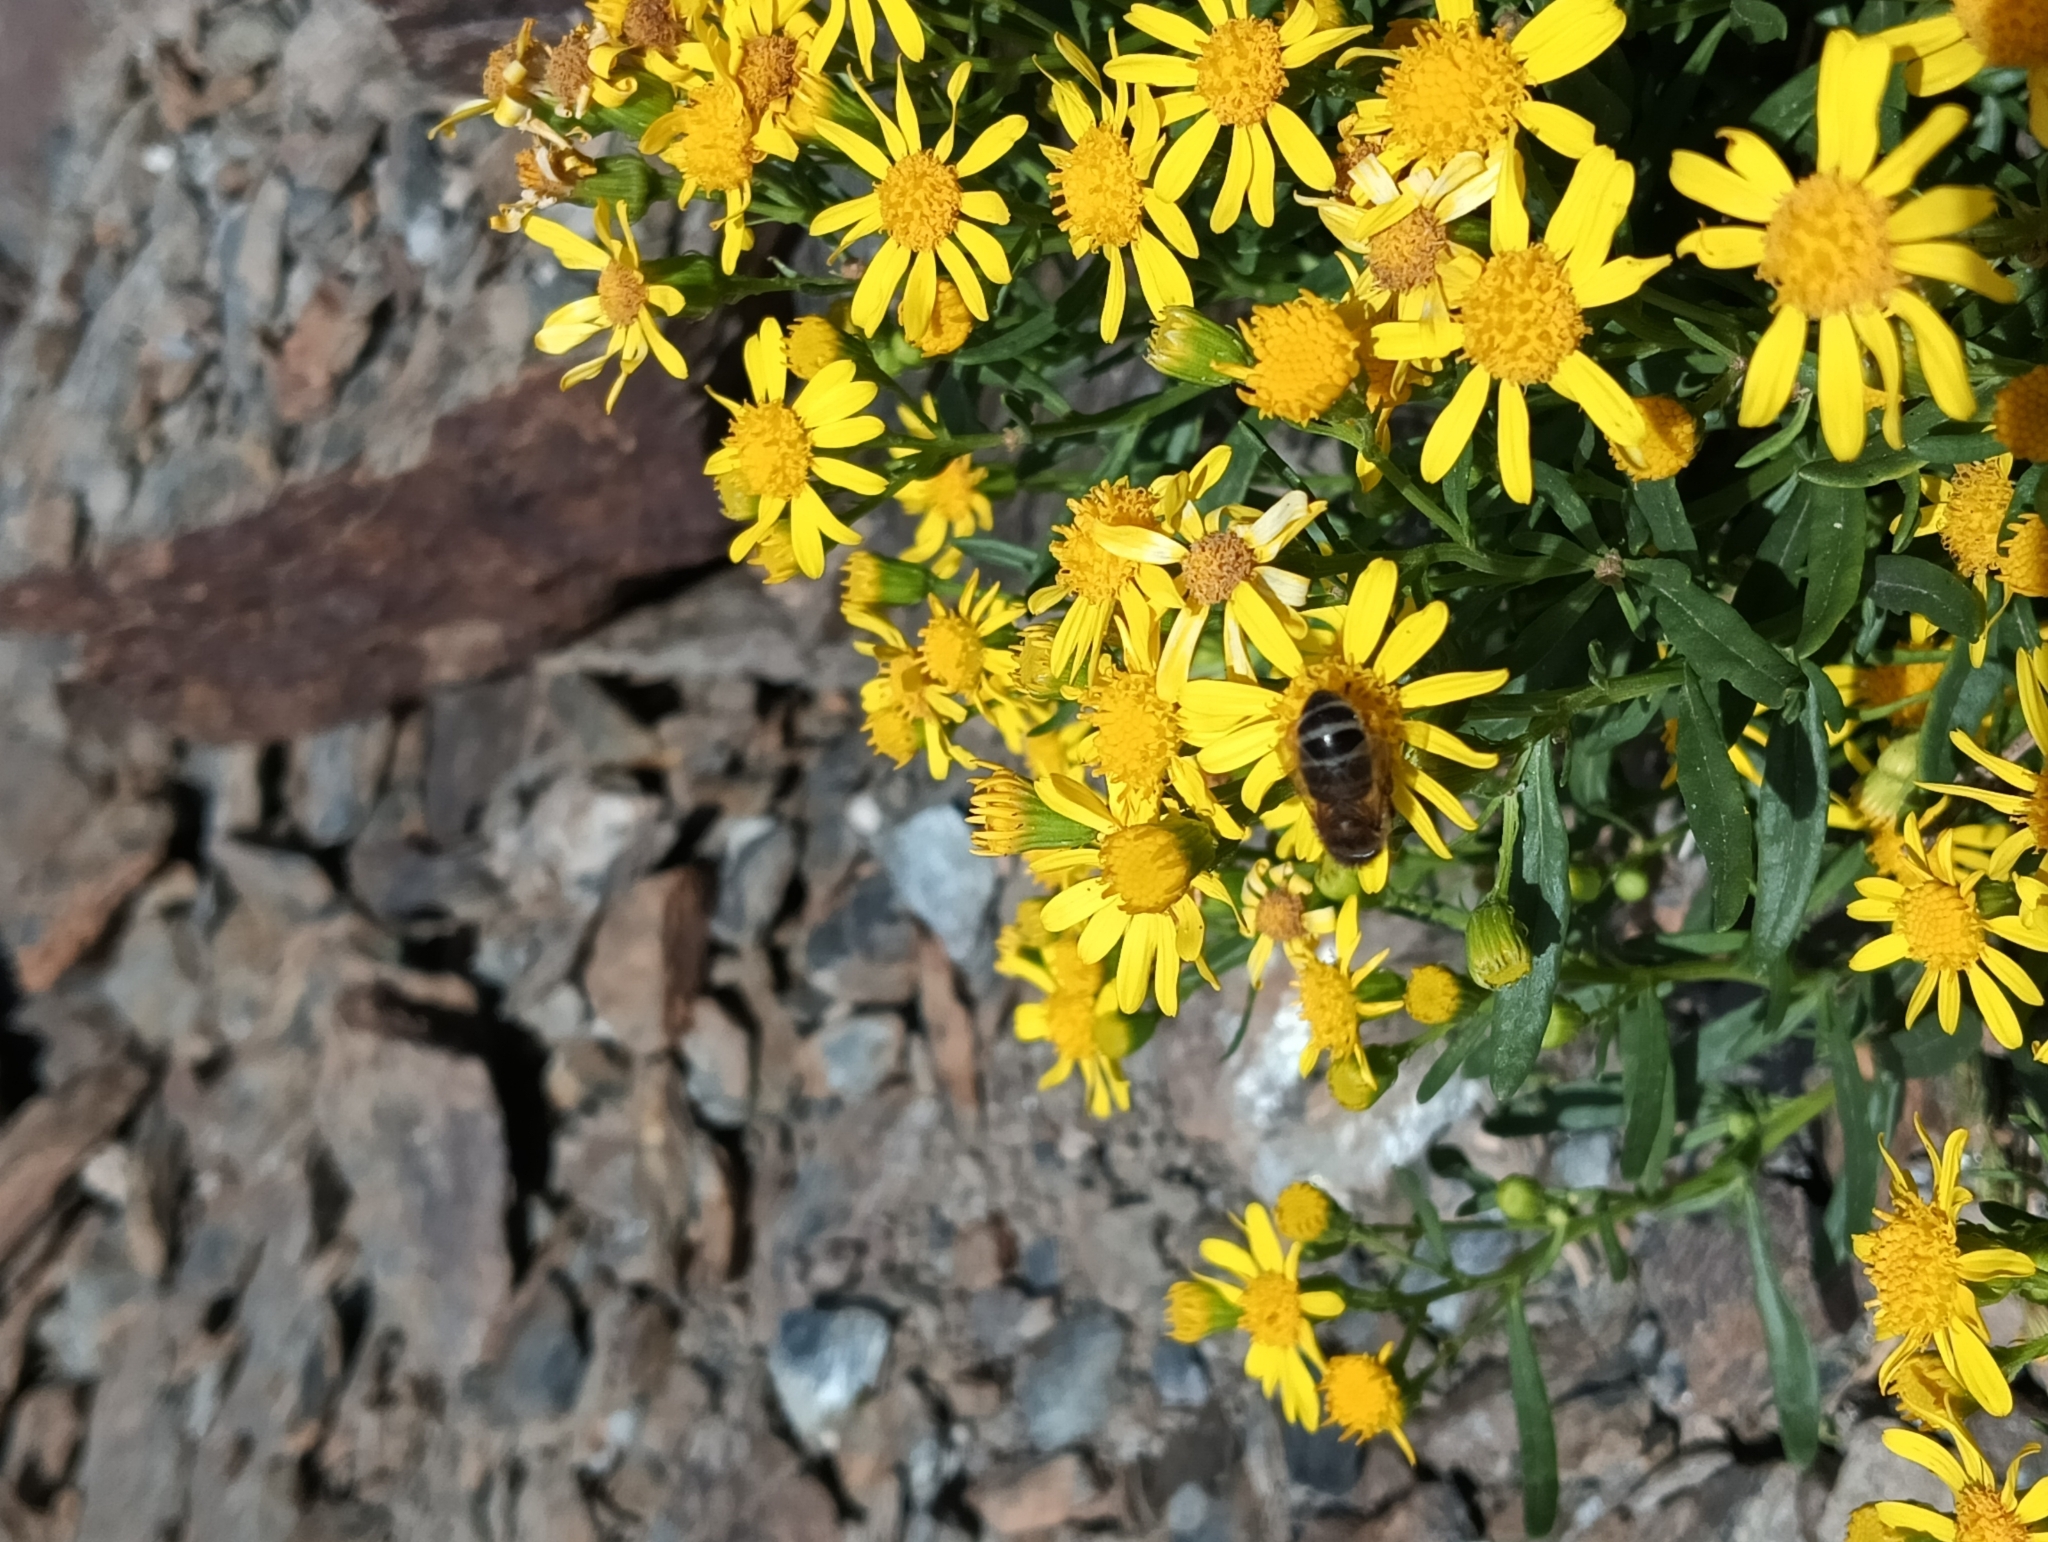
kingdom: Animalia
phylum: Arthropoda
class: Insecta
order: Hymenoptera
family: Apidae
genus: Apis
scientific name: Apis mellifera
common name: Honey bee
